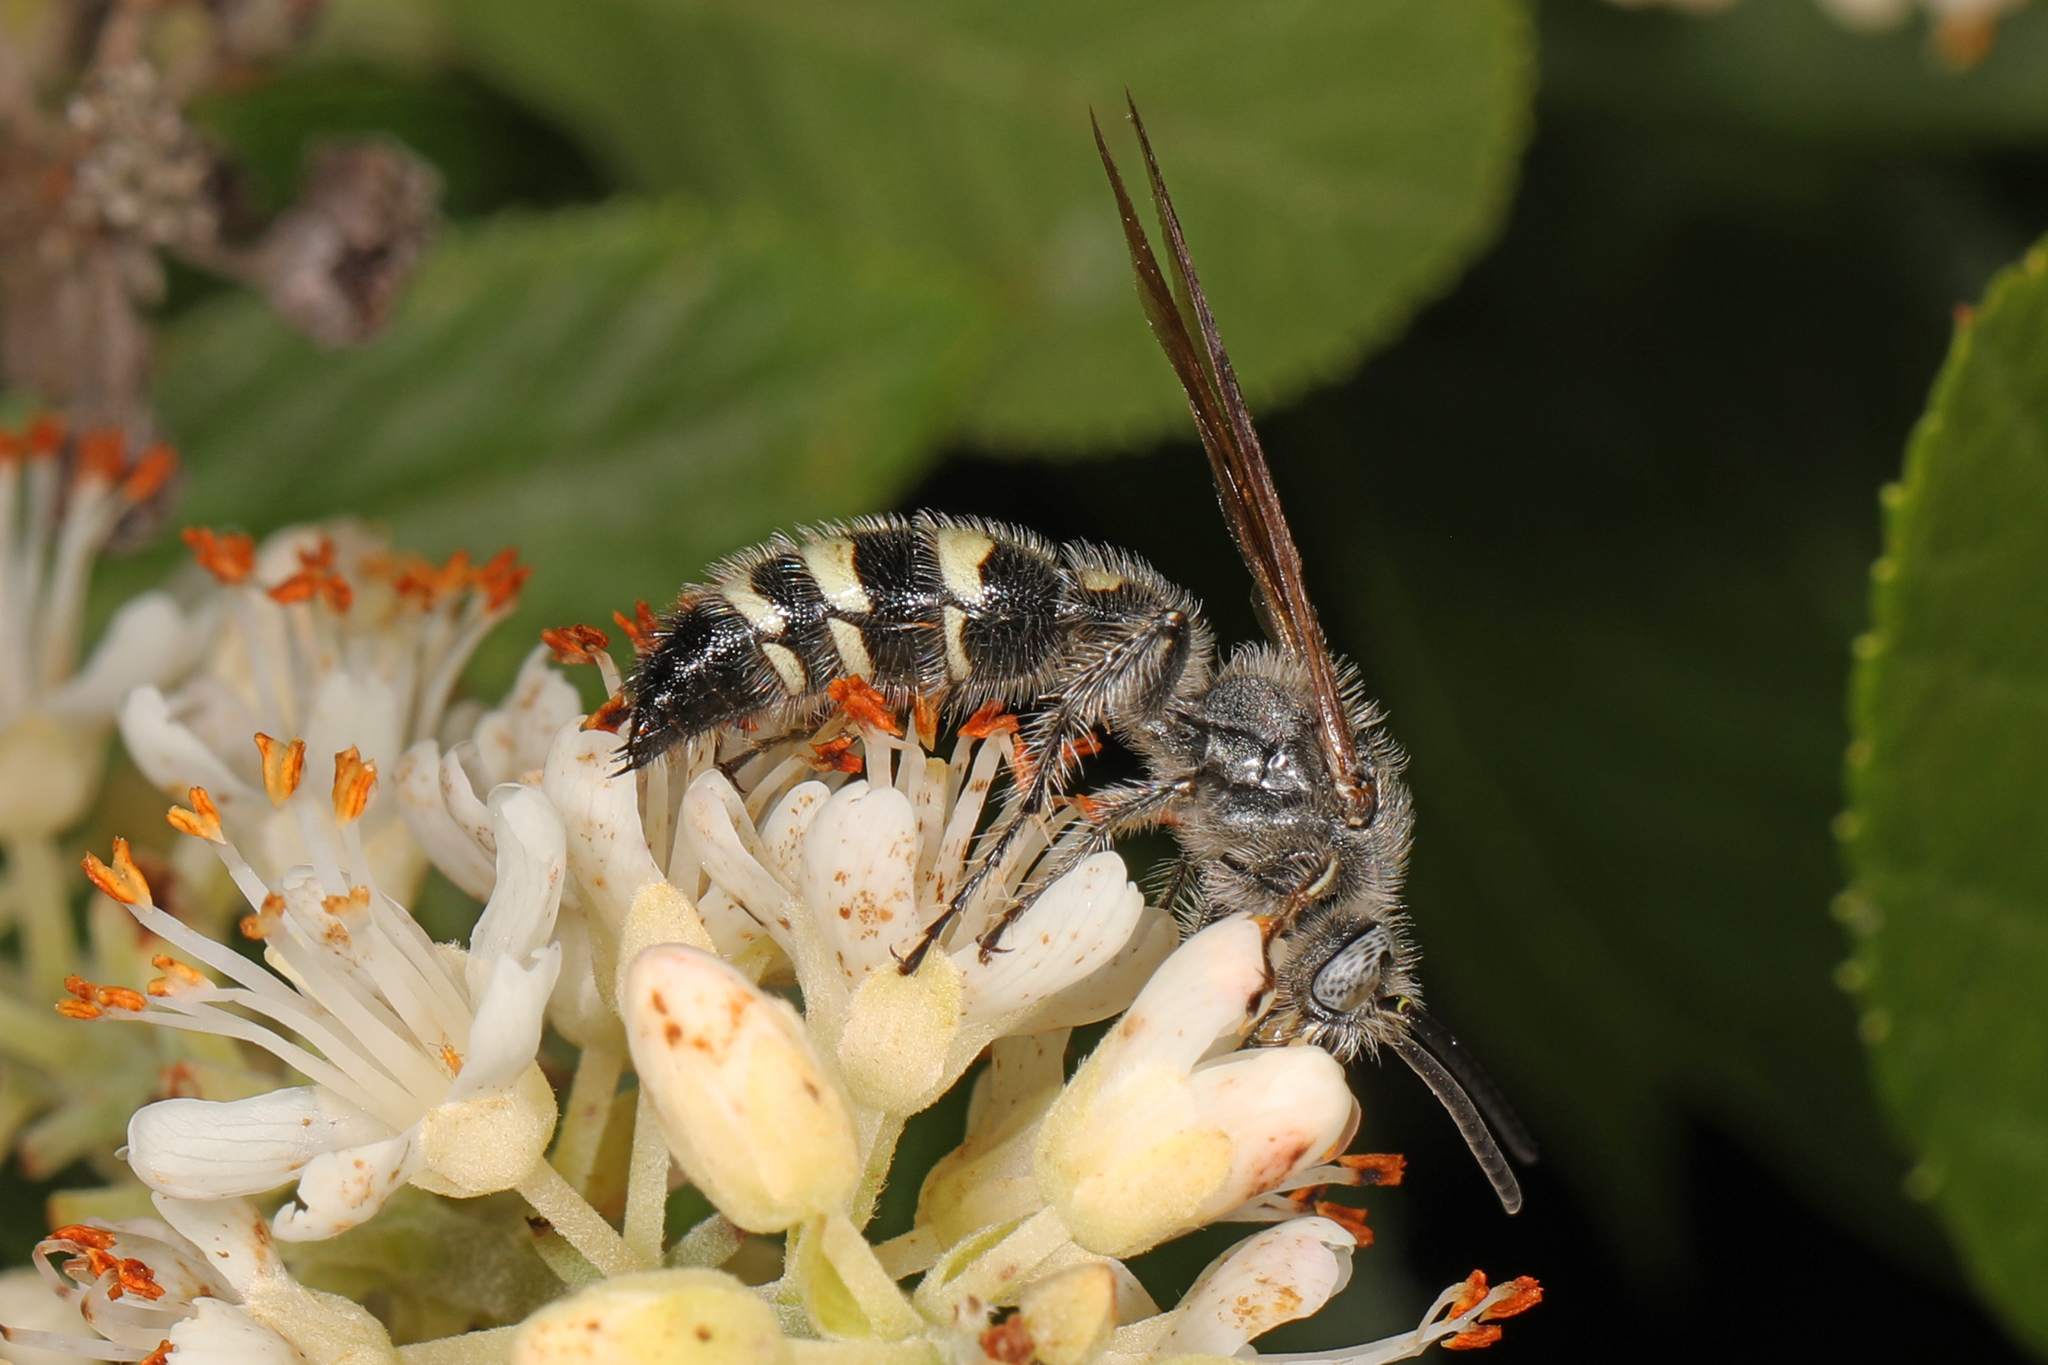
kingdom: Animalia
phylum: Arthropoda
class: Insecta
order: Hymenoptera
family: Scoliidae
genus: Dielis
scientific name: Dielis
